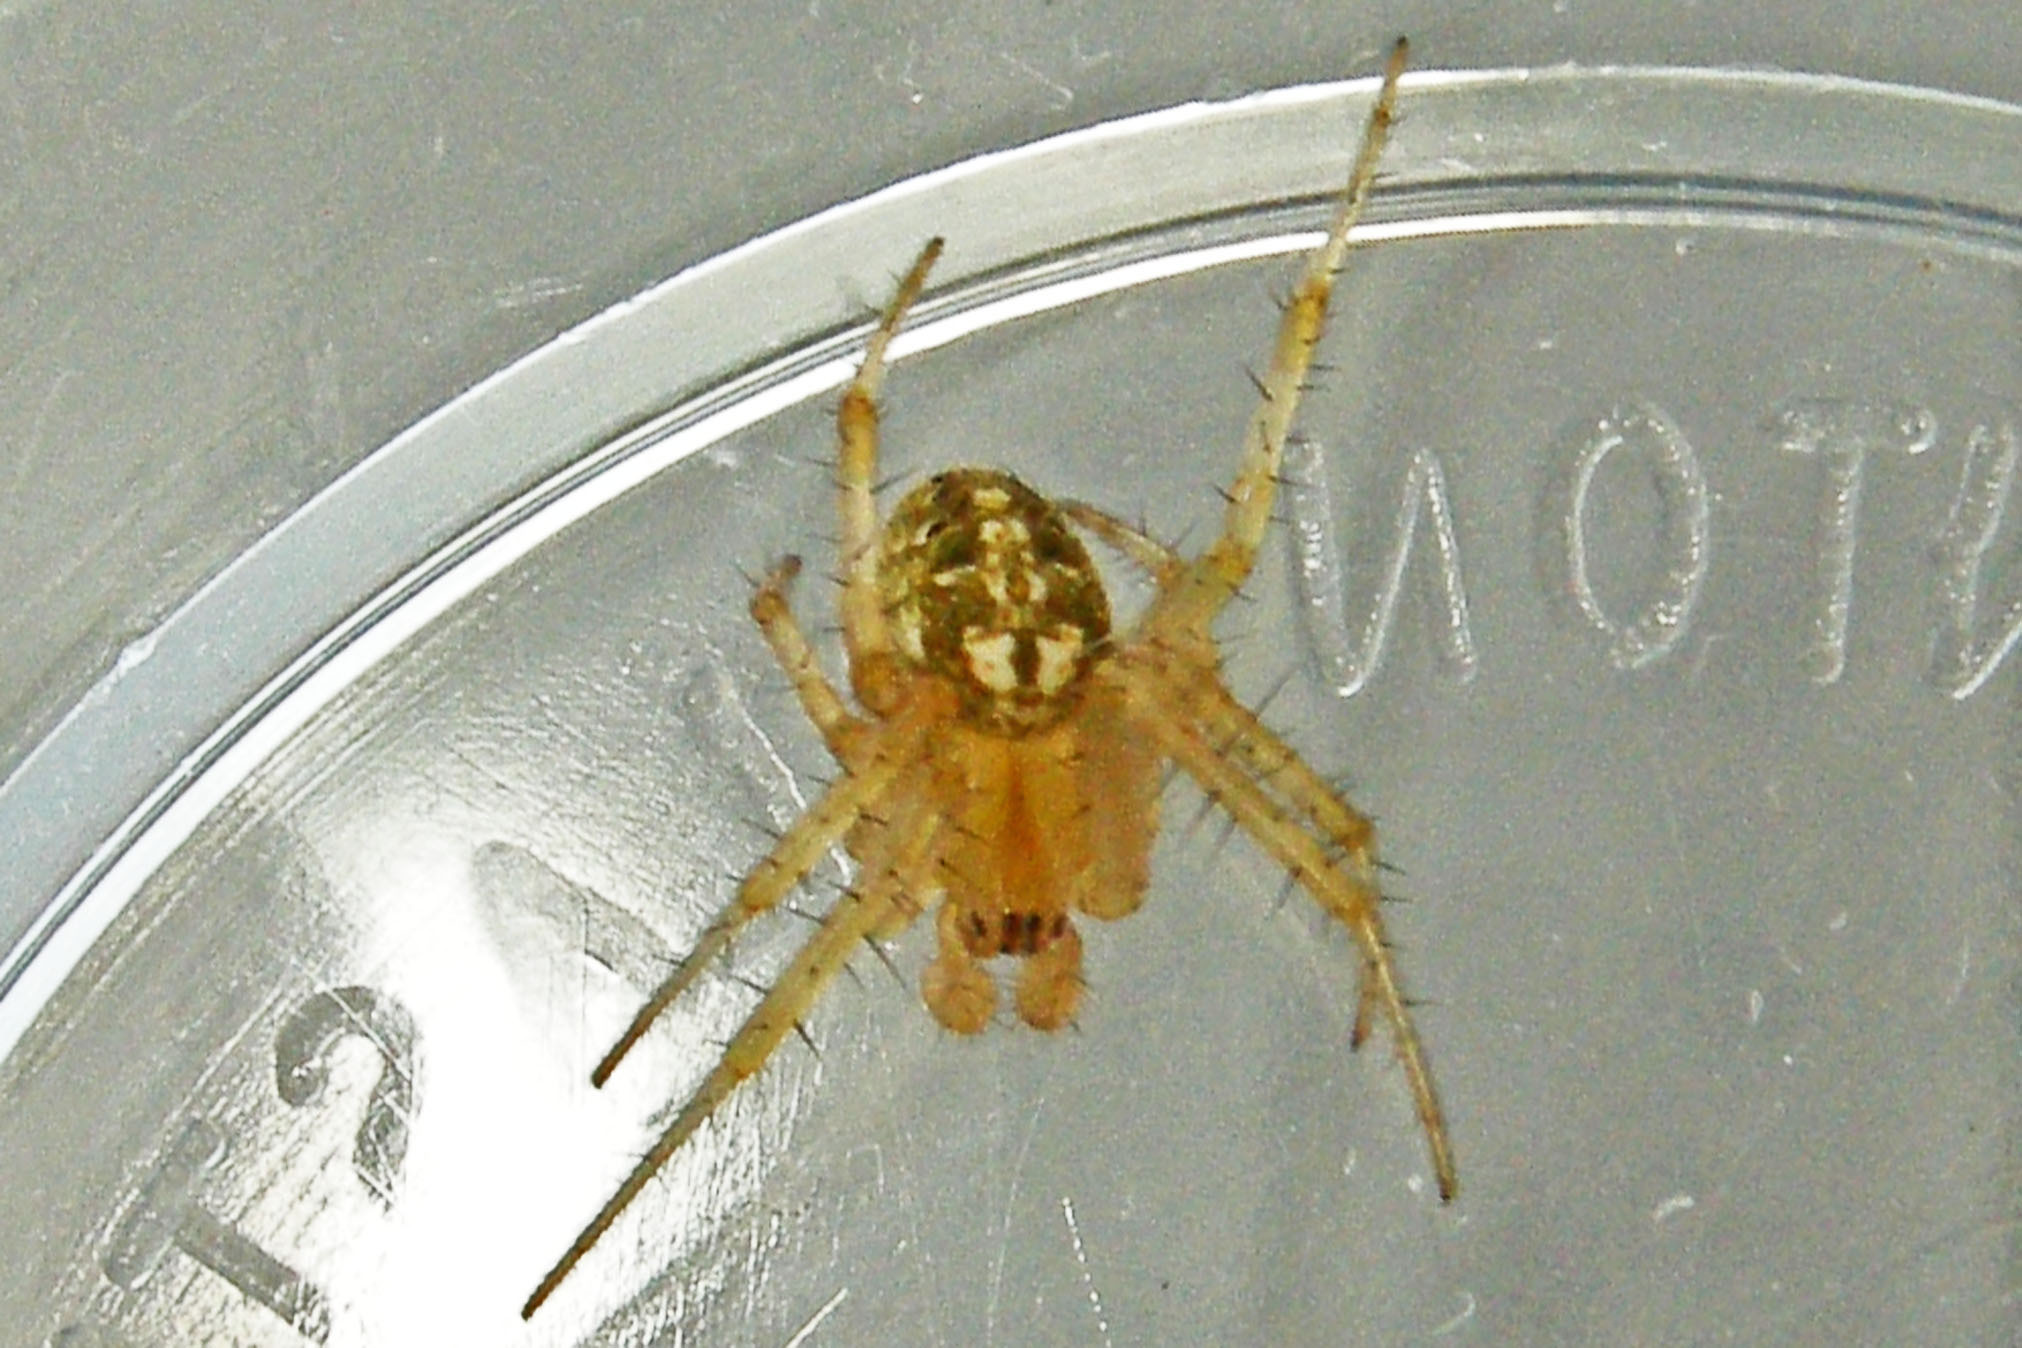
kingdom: Animalia
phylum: Arthropoda
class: Arachnida
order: Araneae
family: Araneidae
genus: Neoscona
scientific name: Neoscona arabesca
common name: Orb weavers
